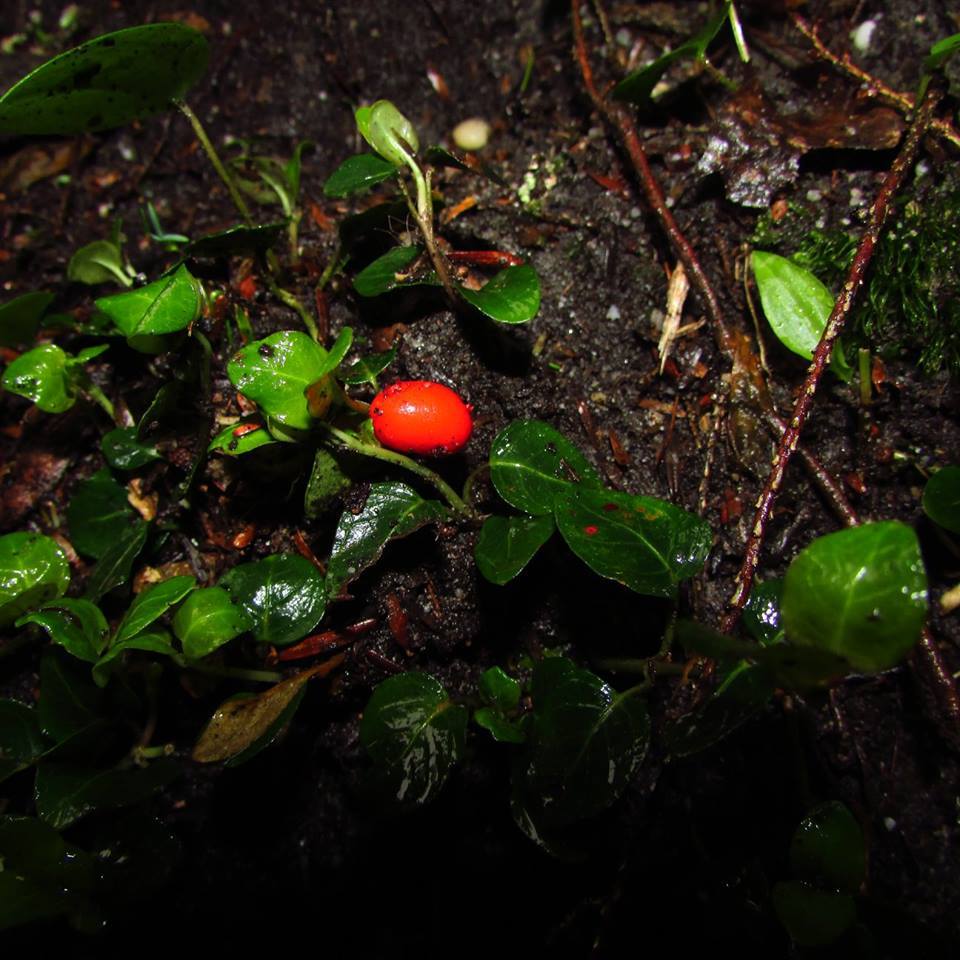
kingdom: Plantae
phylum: Tracheophyta
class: Magnoliopsida
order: Gentianales
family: Rubiaceae
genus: Mitchella
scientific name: Mitchella repens
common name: Partridge-berry
